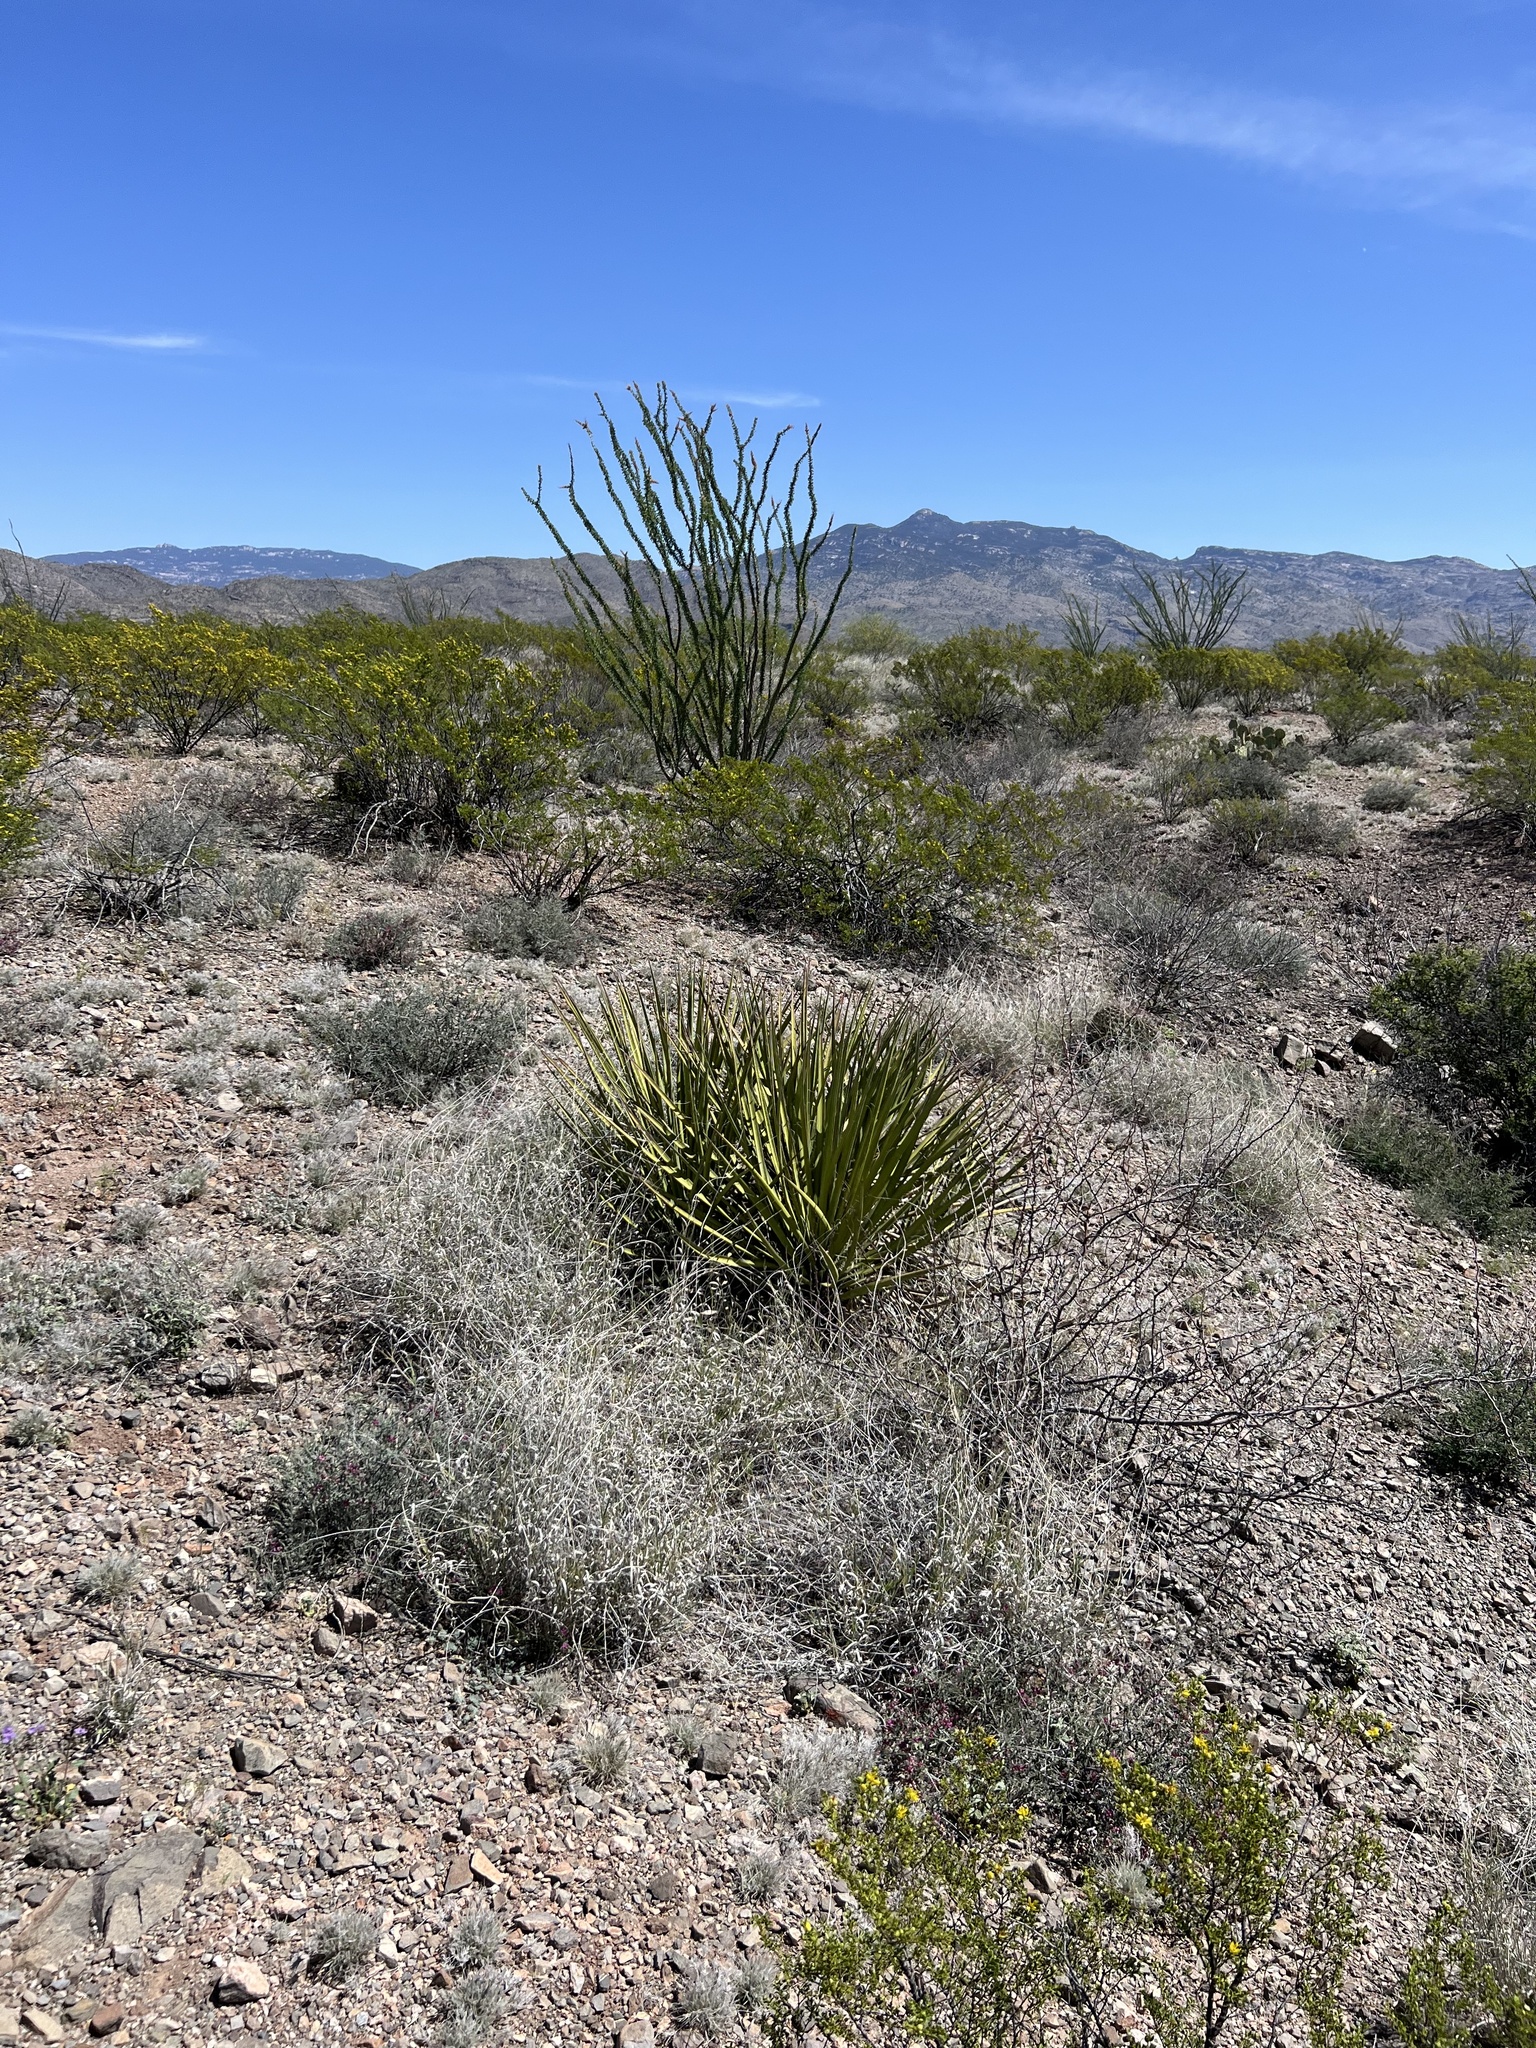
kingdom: Plantae
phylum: Tracheophyta
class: Liliopsida
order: Asparagales
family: Asparagaceae
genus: Yucca
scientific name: Yucca baccata
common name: Banana yucca
